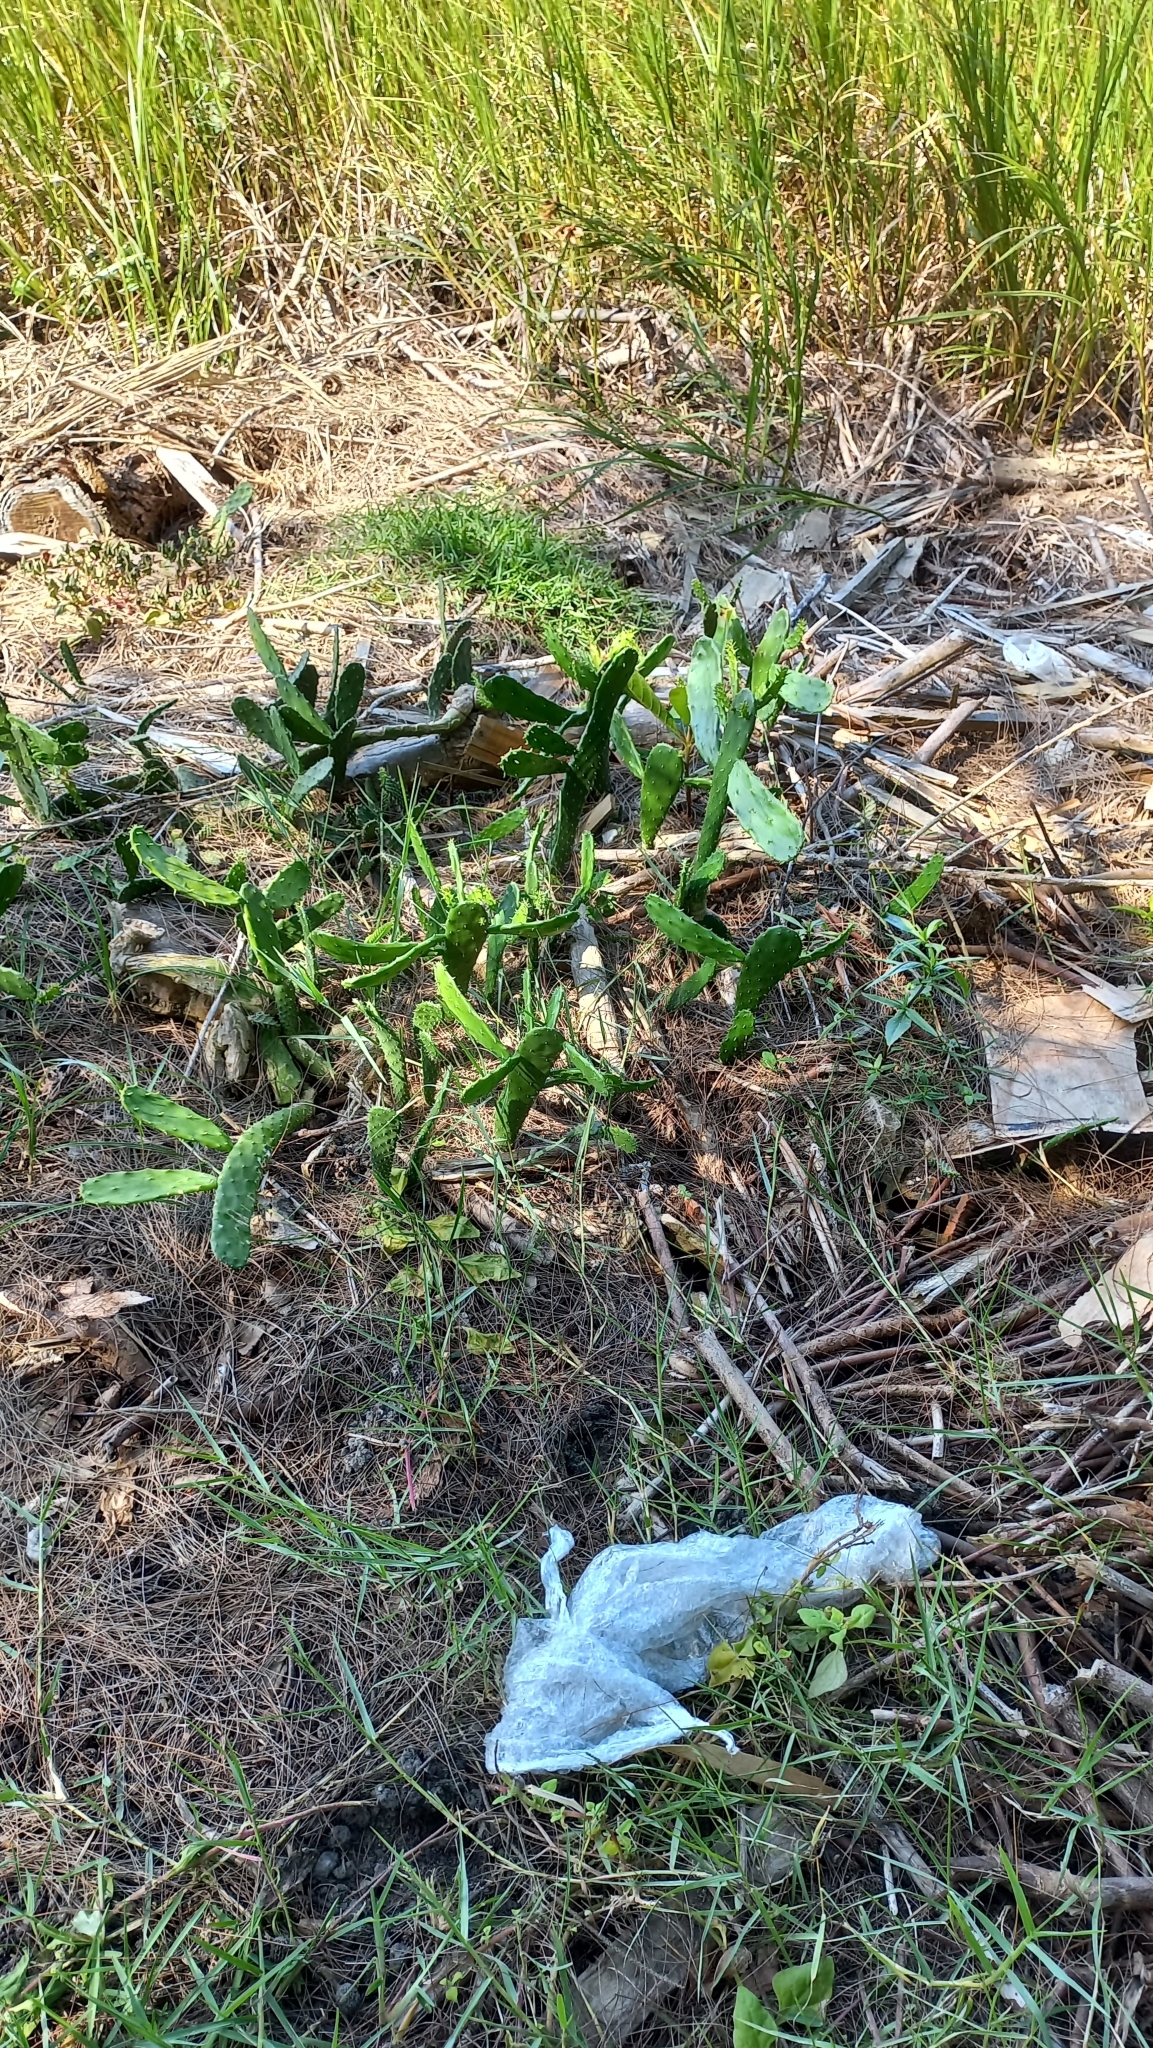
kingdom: Plantae
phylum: Tracheophyta
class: Magnoliopsida
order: Caryophyllales
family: Cactaceae
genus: Opuntia
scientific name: Opuntia cochenillifera
